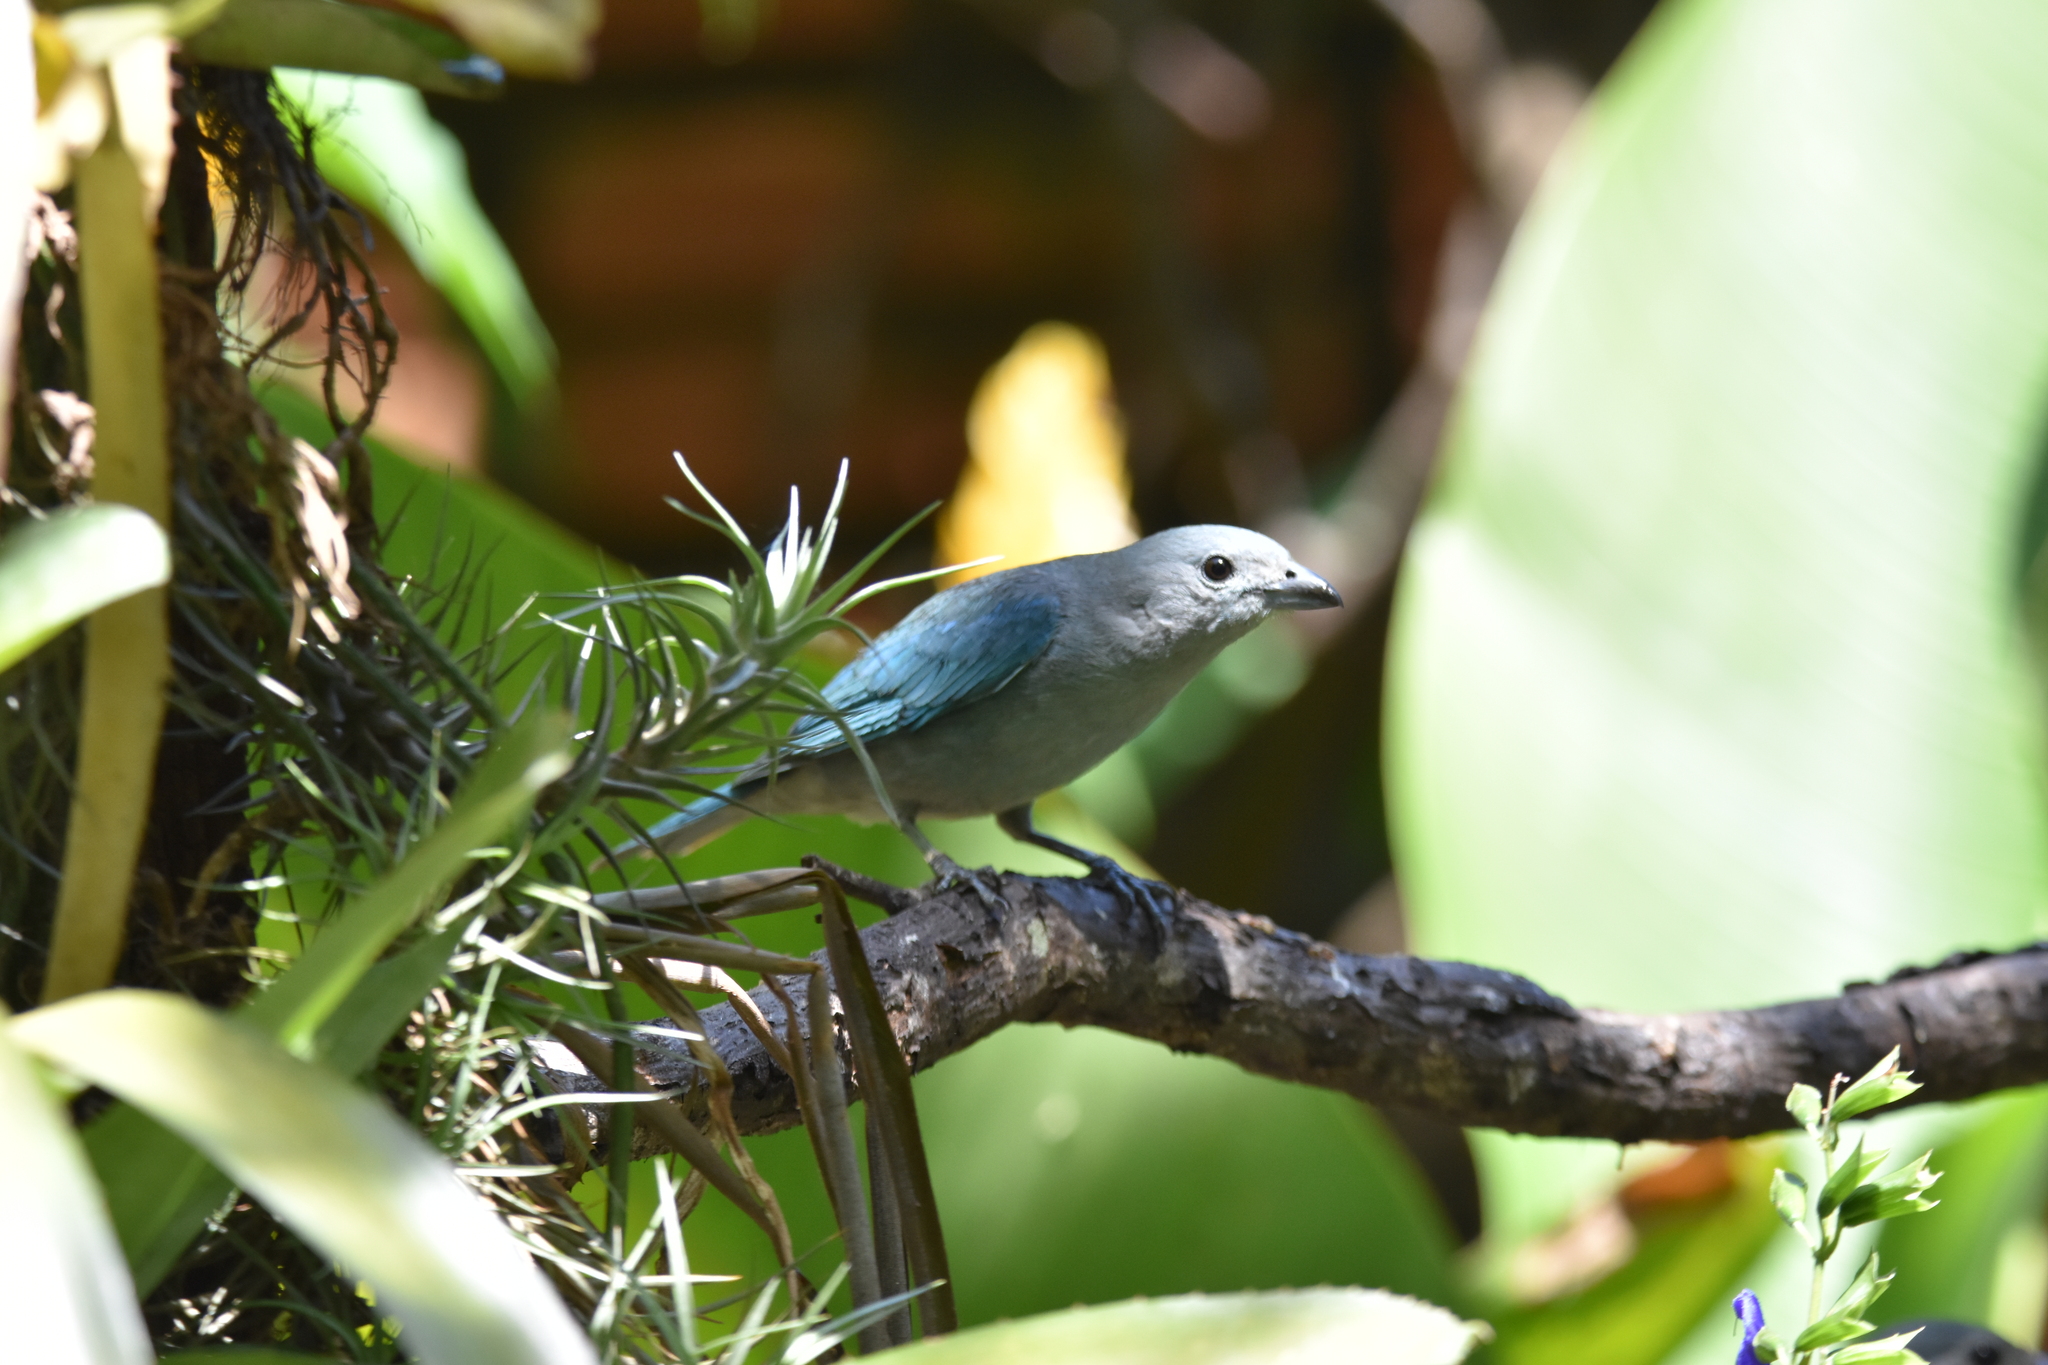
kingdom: Animalia
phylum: Chordata
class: Aves
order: Passeriformes
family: Thraupidae
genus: Thraupis
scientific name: Thraupis sayaca
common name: Sayaca tanager
